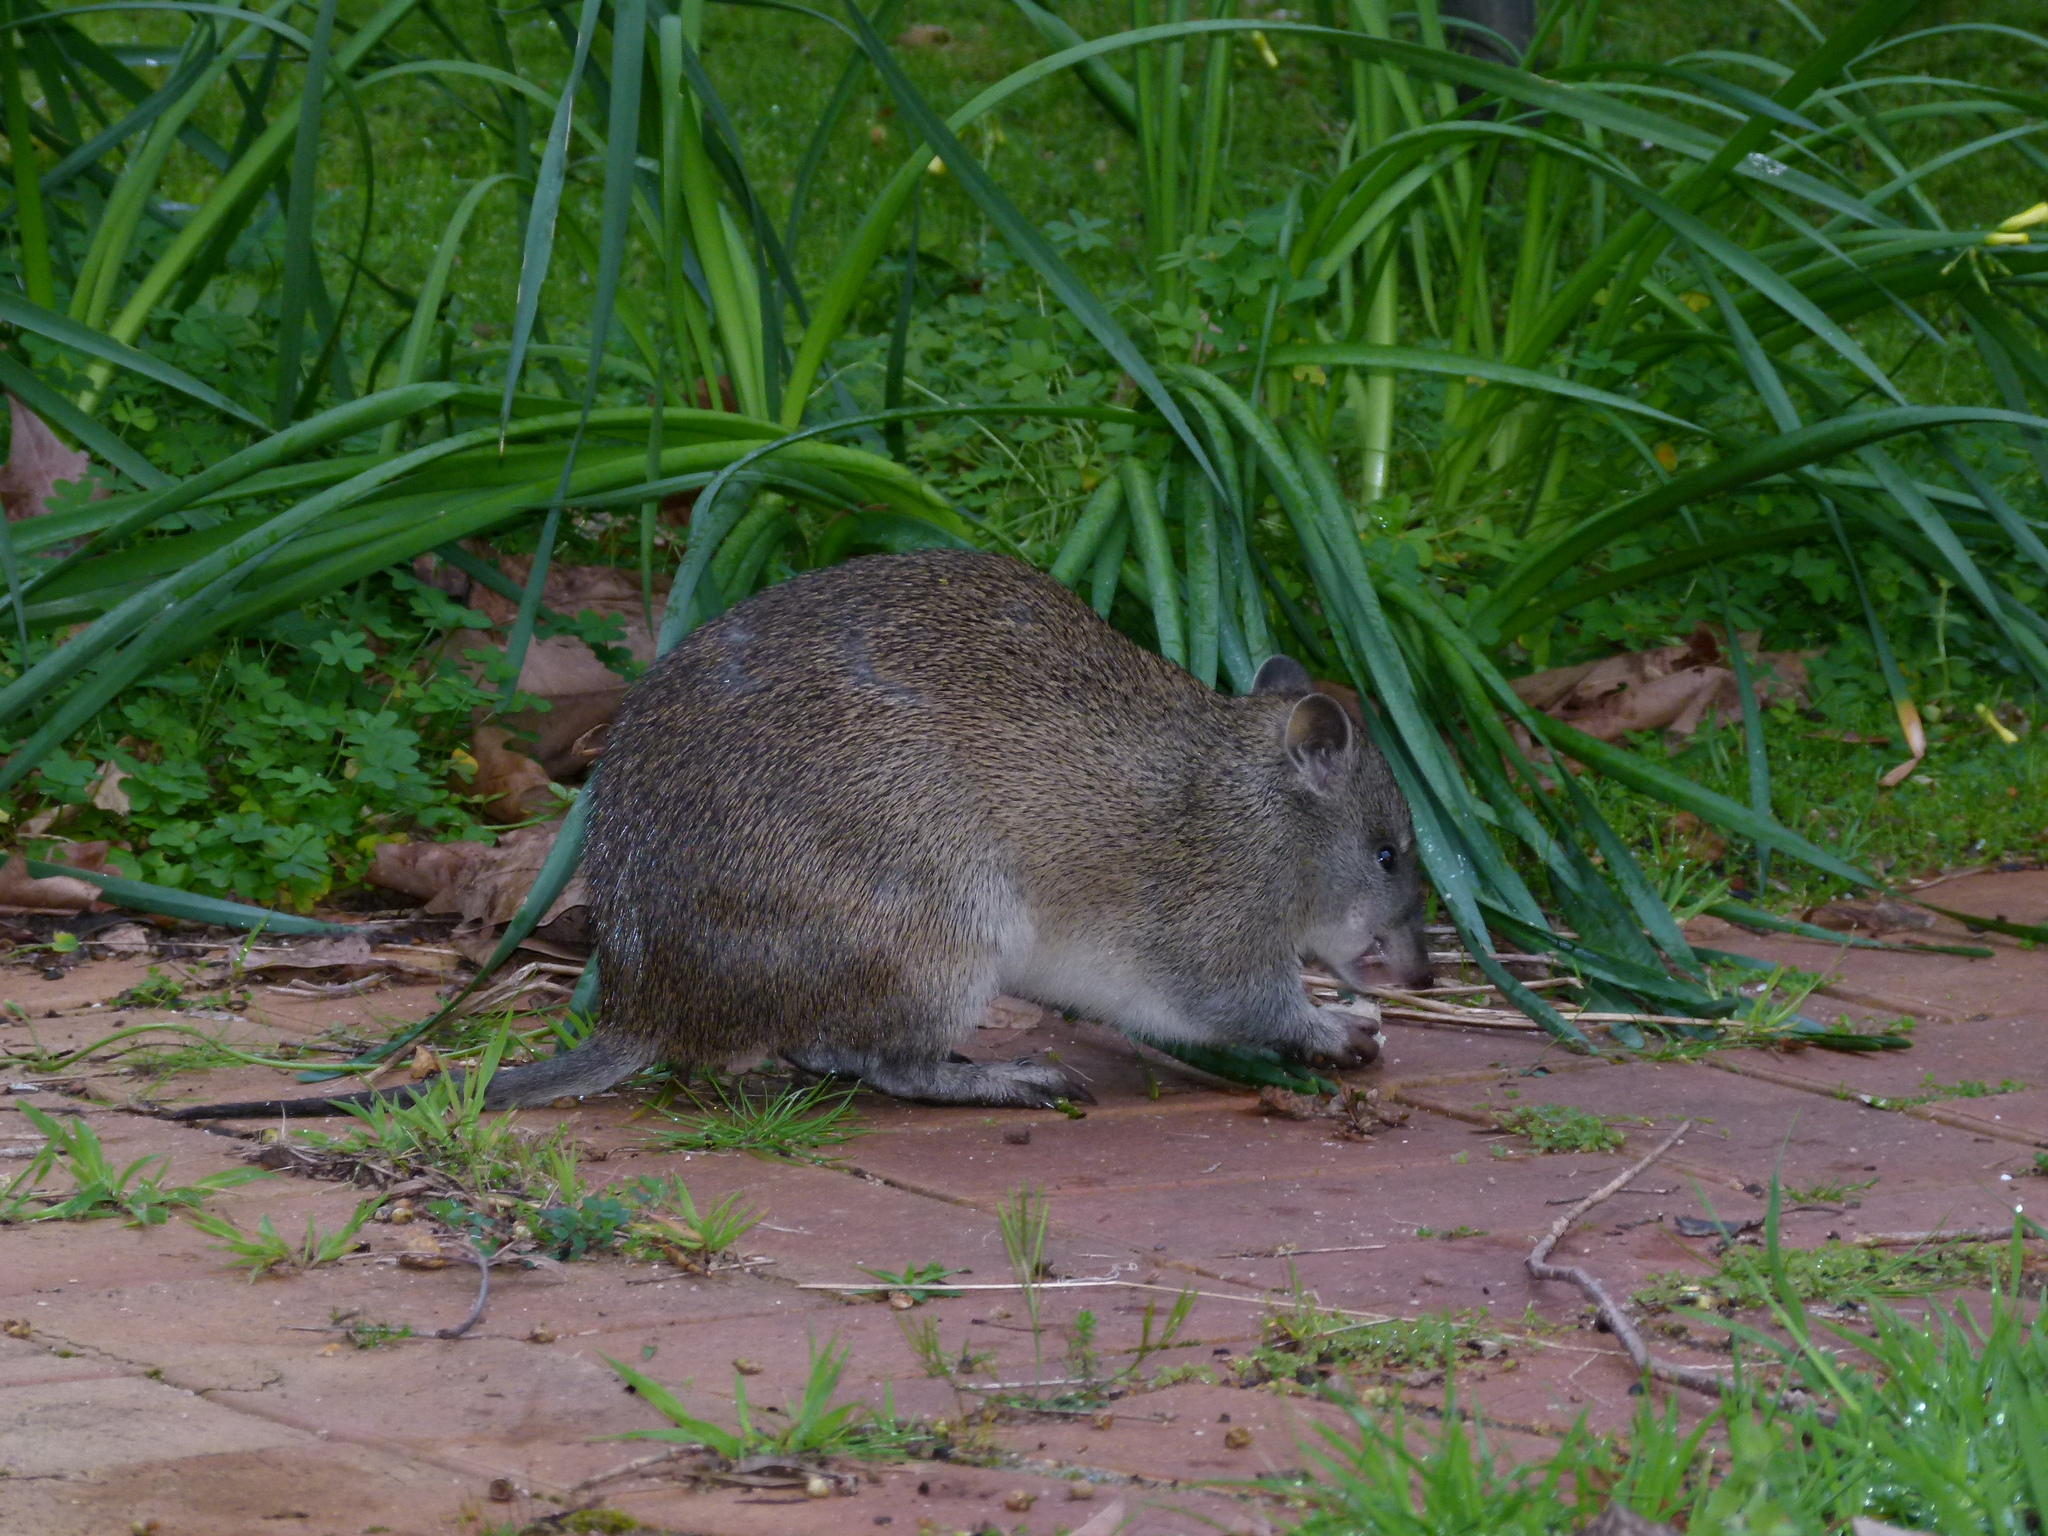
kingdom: Animalia
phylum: Chordata
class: Mammalia
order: Peramelemorphia
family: Peramelidae
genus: Isoodon
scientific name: Isoodon fusciventer
